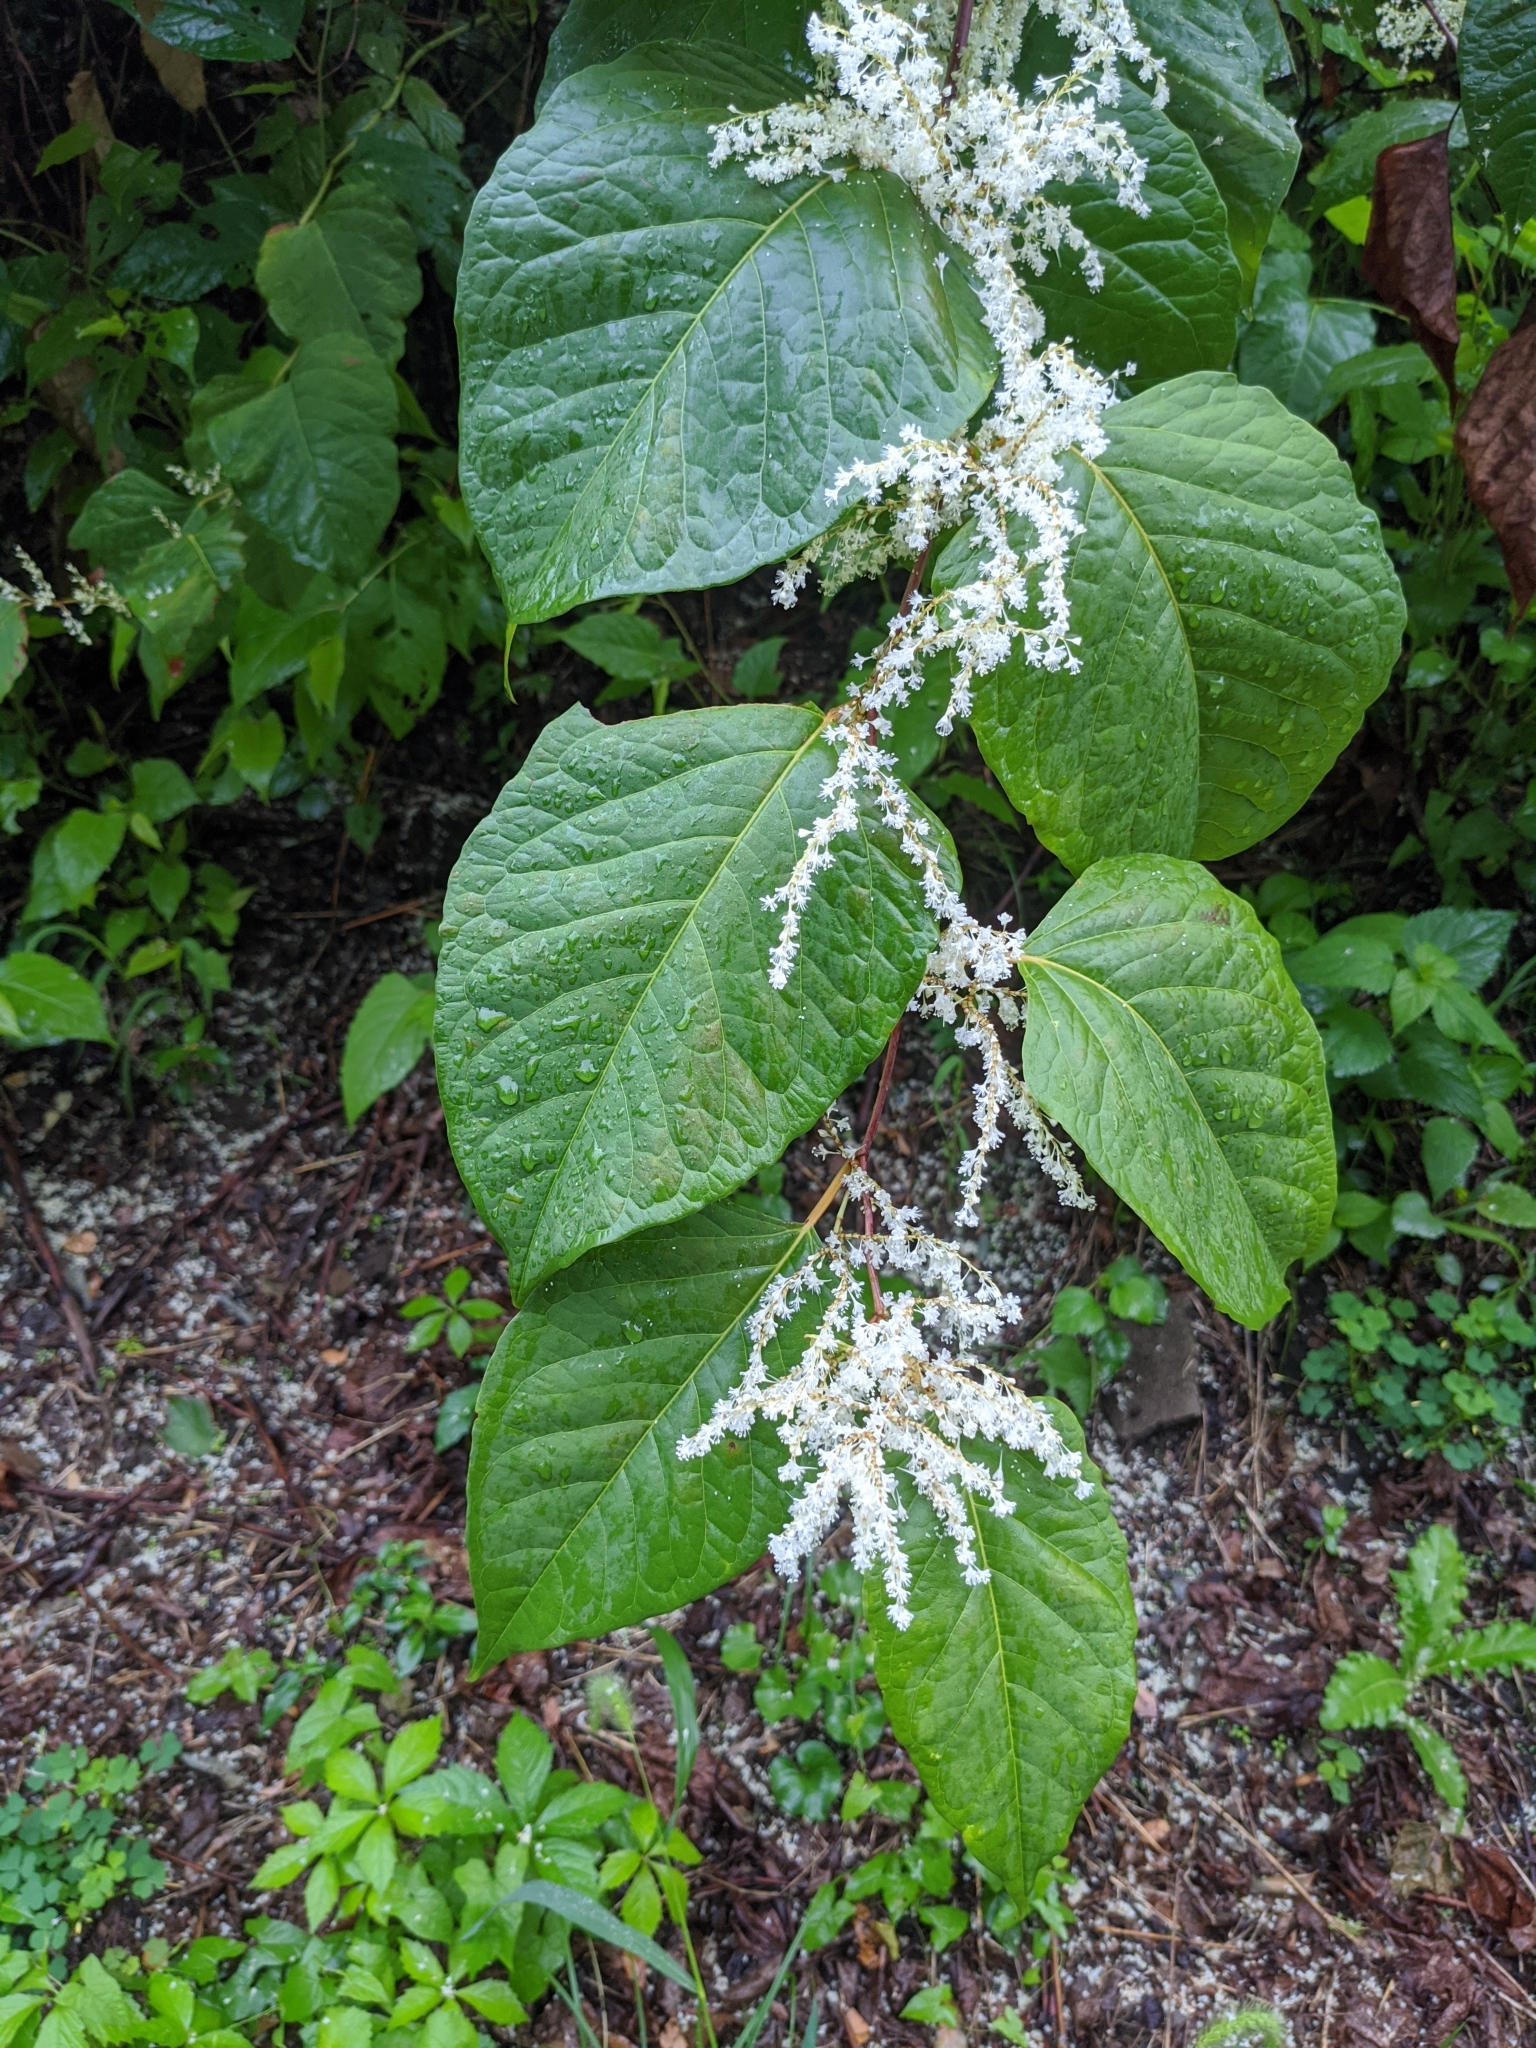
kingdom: Plantae
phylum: Tracheophyta
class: Magnoliopsida
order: Caryophyllales
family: Polygonaceae
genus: Reynoutria
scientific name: Reynoutria japonica
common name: Japanese knotweed
